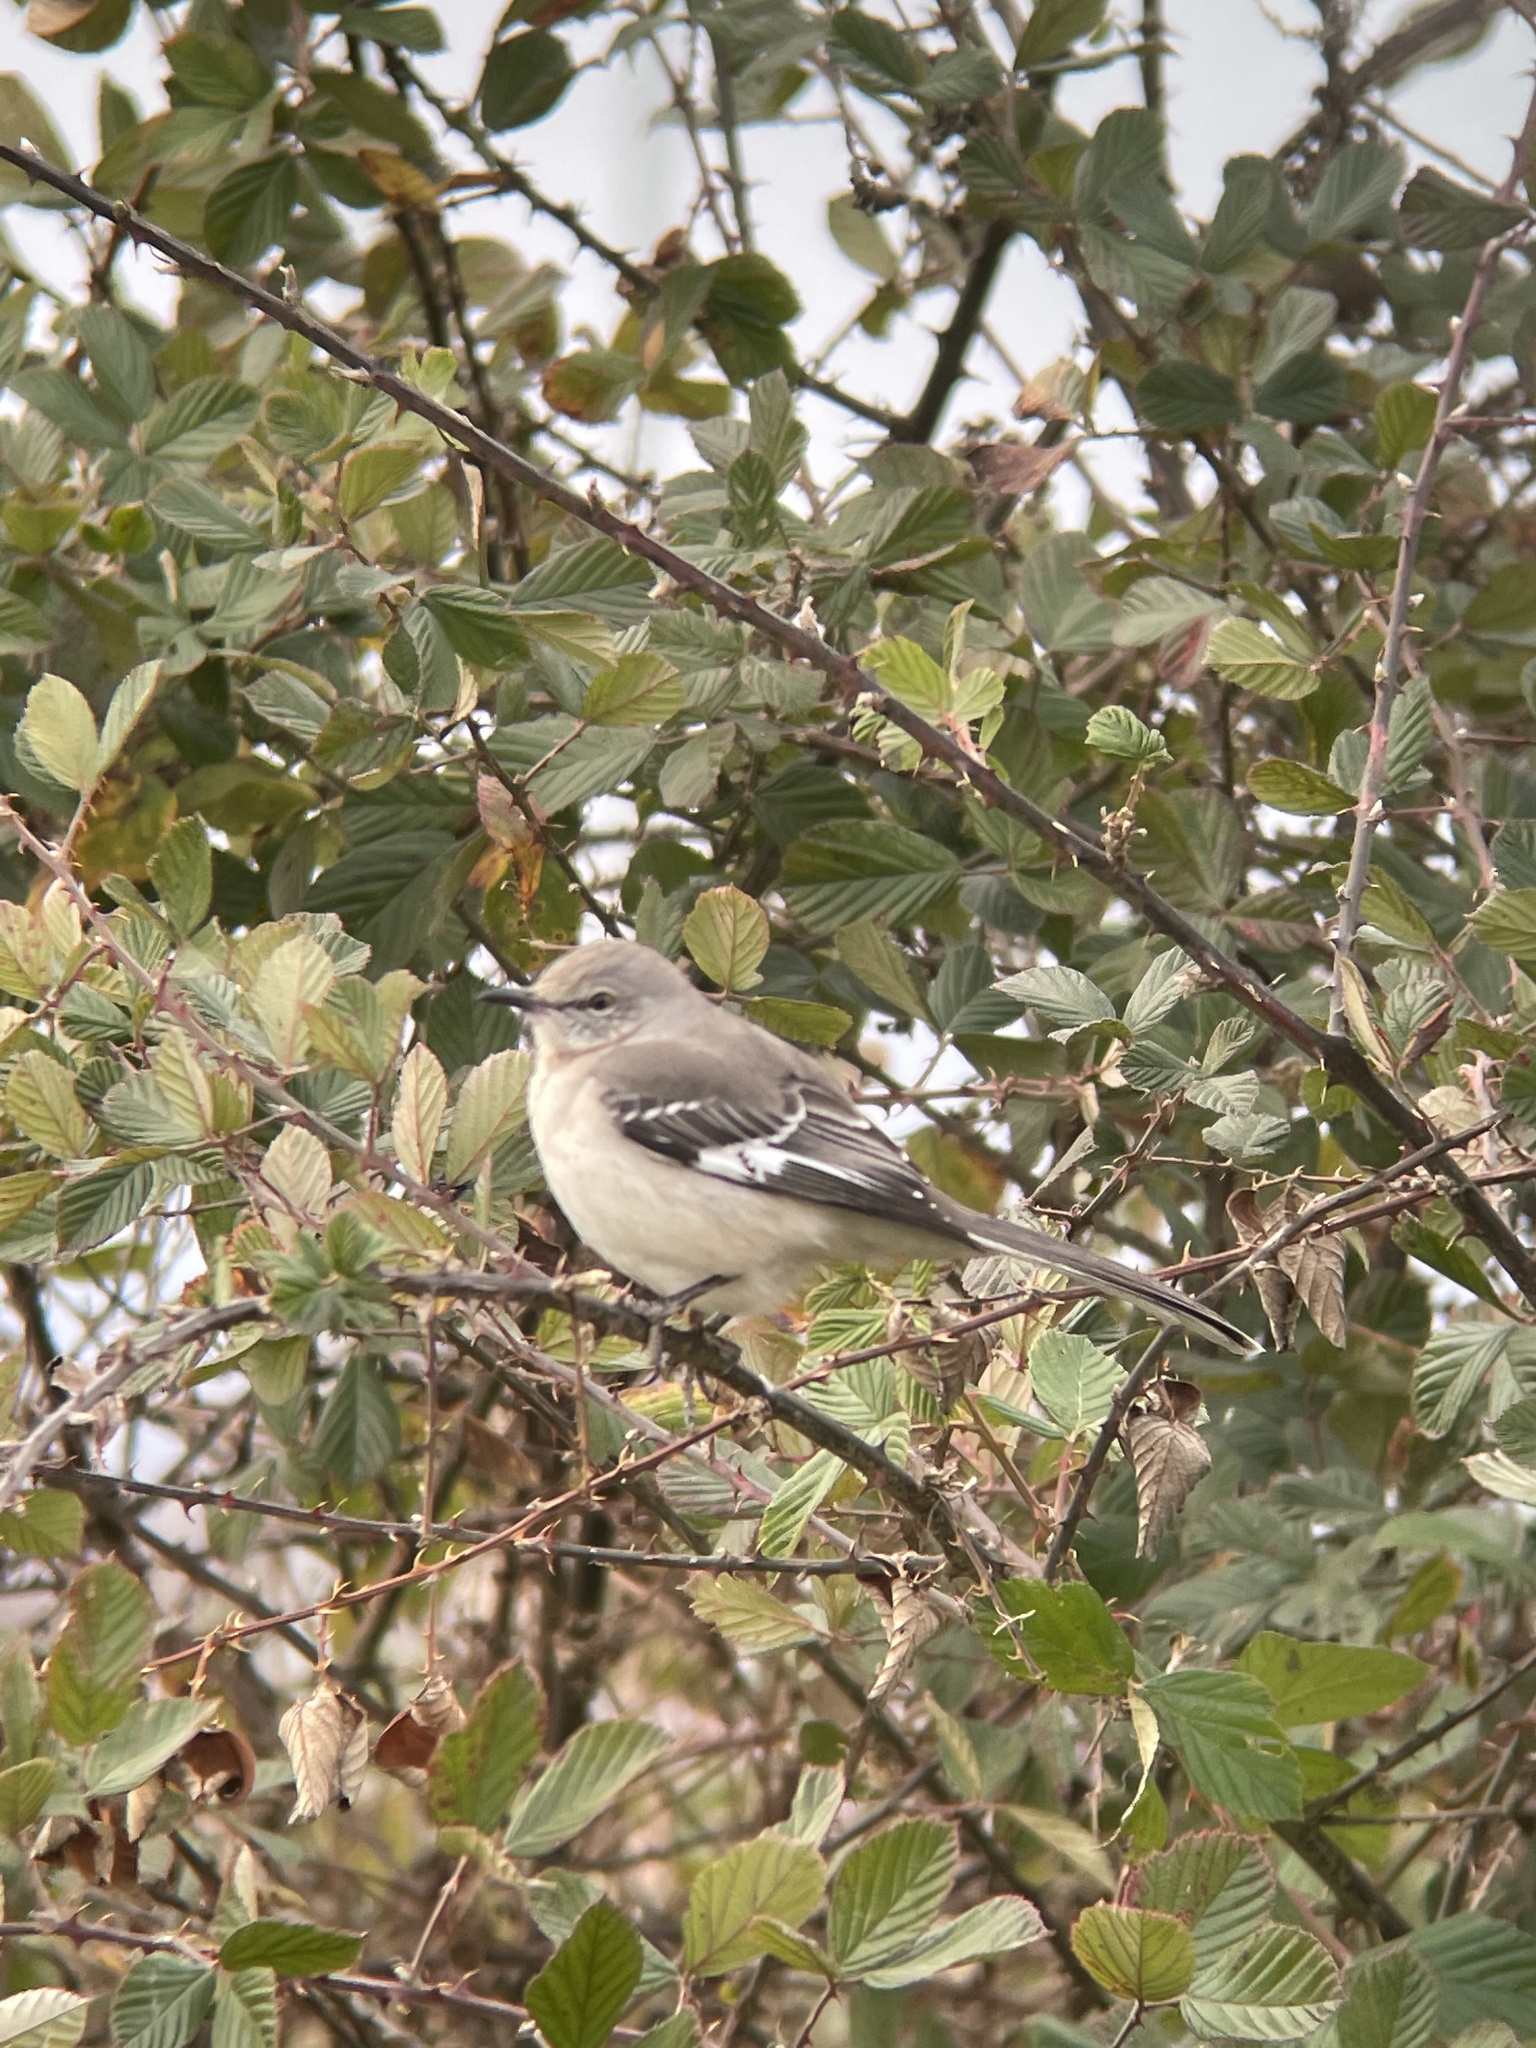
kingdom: Animalia
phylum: Chordata
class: Aves
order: Passeriformes
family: Mimidae
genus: Mimus
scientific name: Mimus polyglottos
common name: Northern mockingbird
